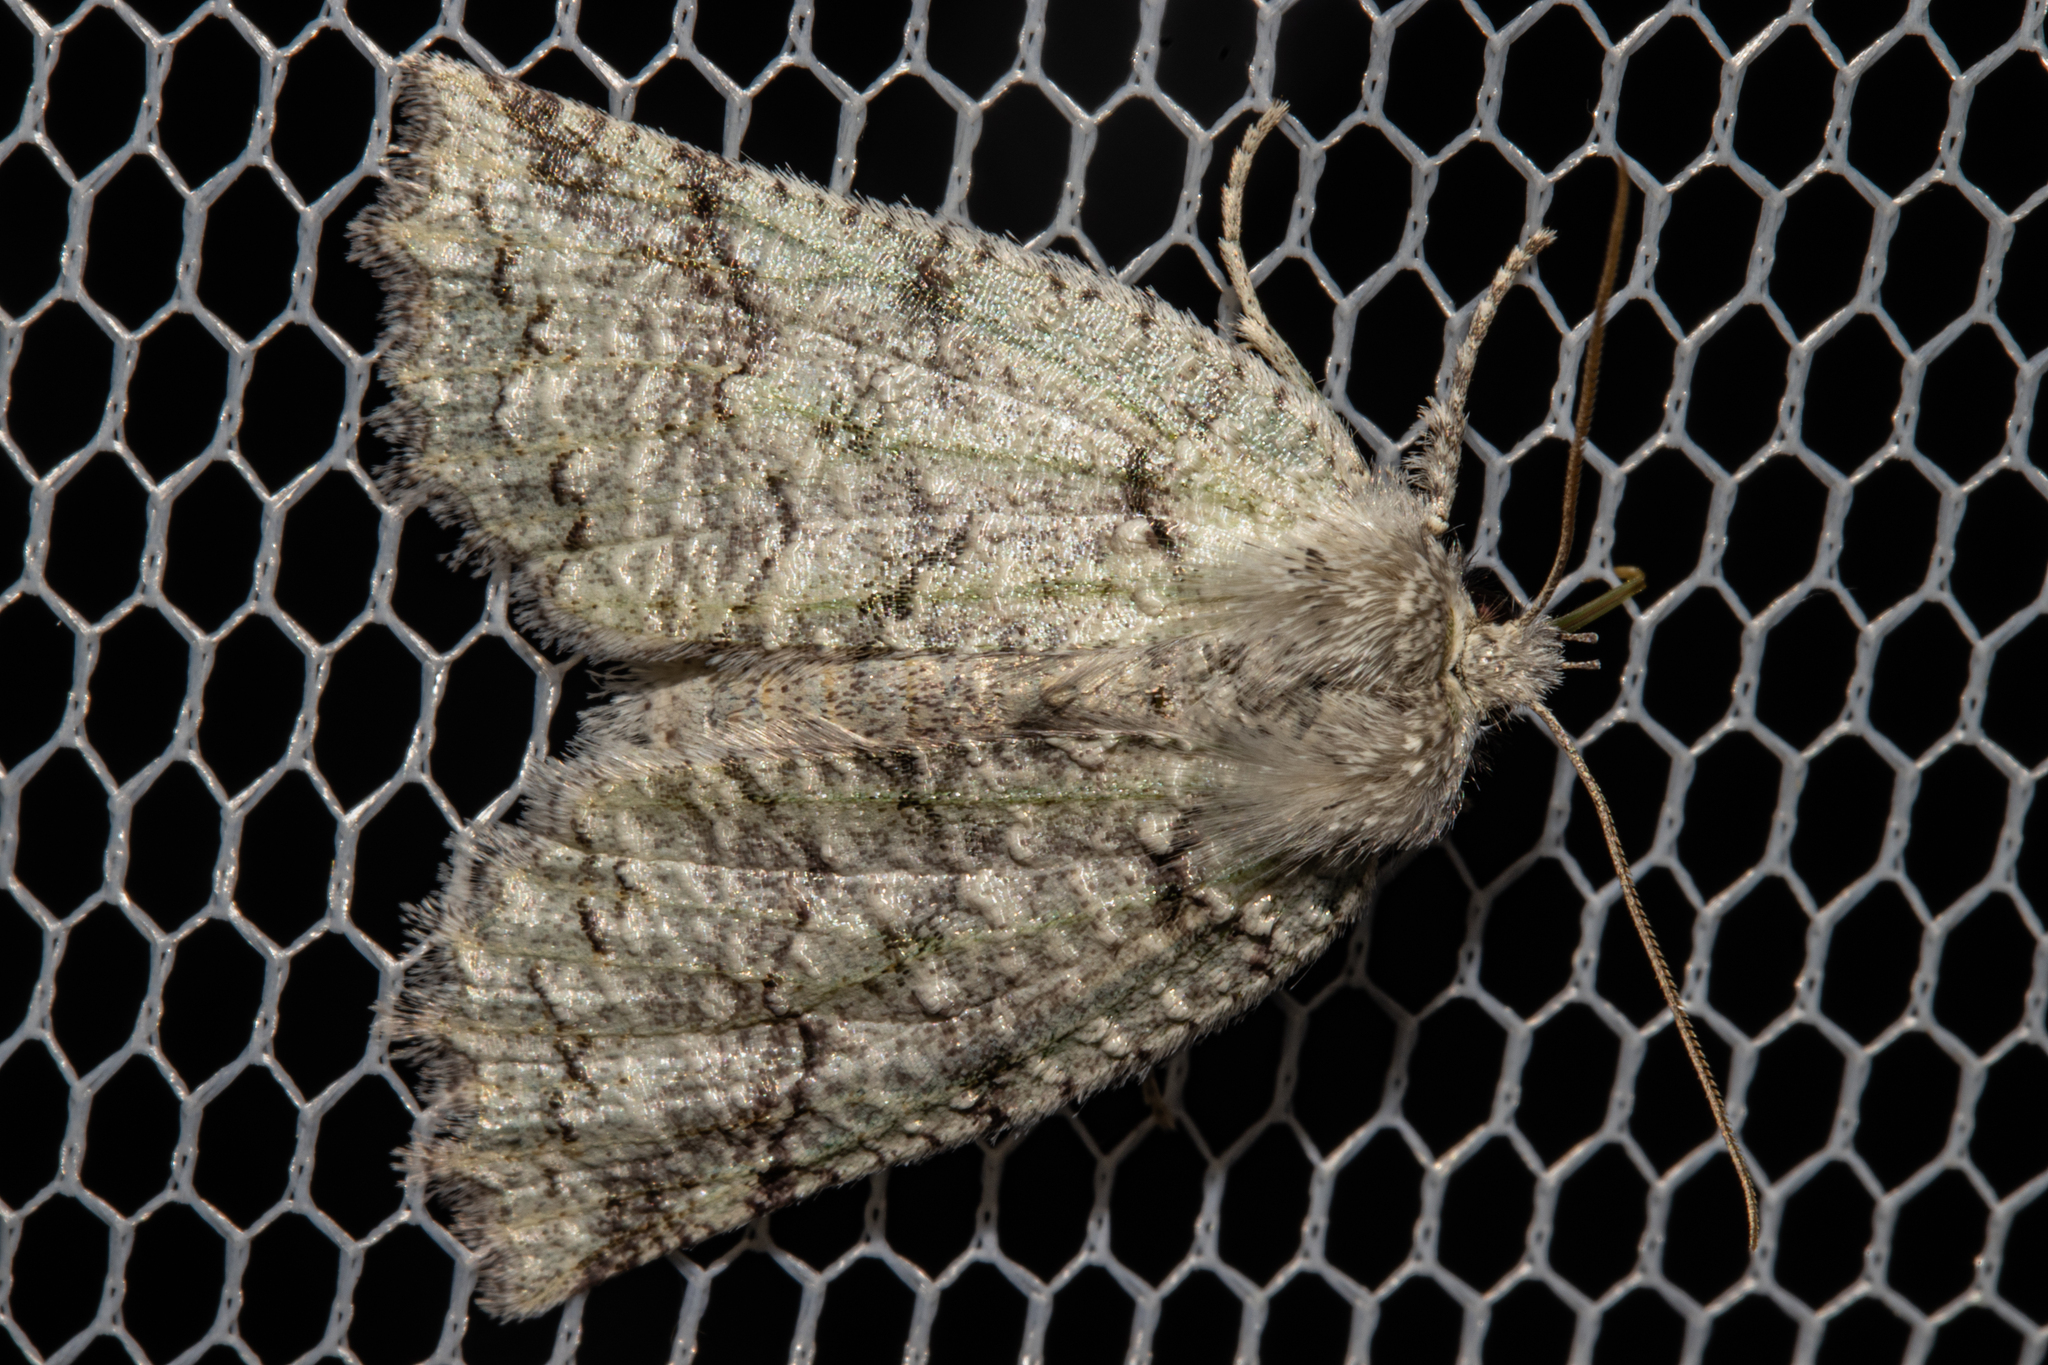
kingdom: Animalia
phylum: Arthropoda
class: Insecta
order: Lepidoptera
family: Geometridae
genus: Declana
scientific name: Declana floccosa
